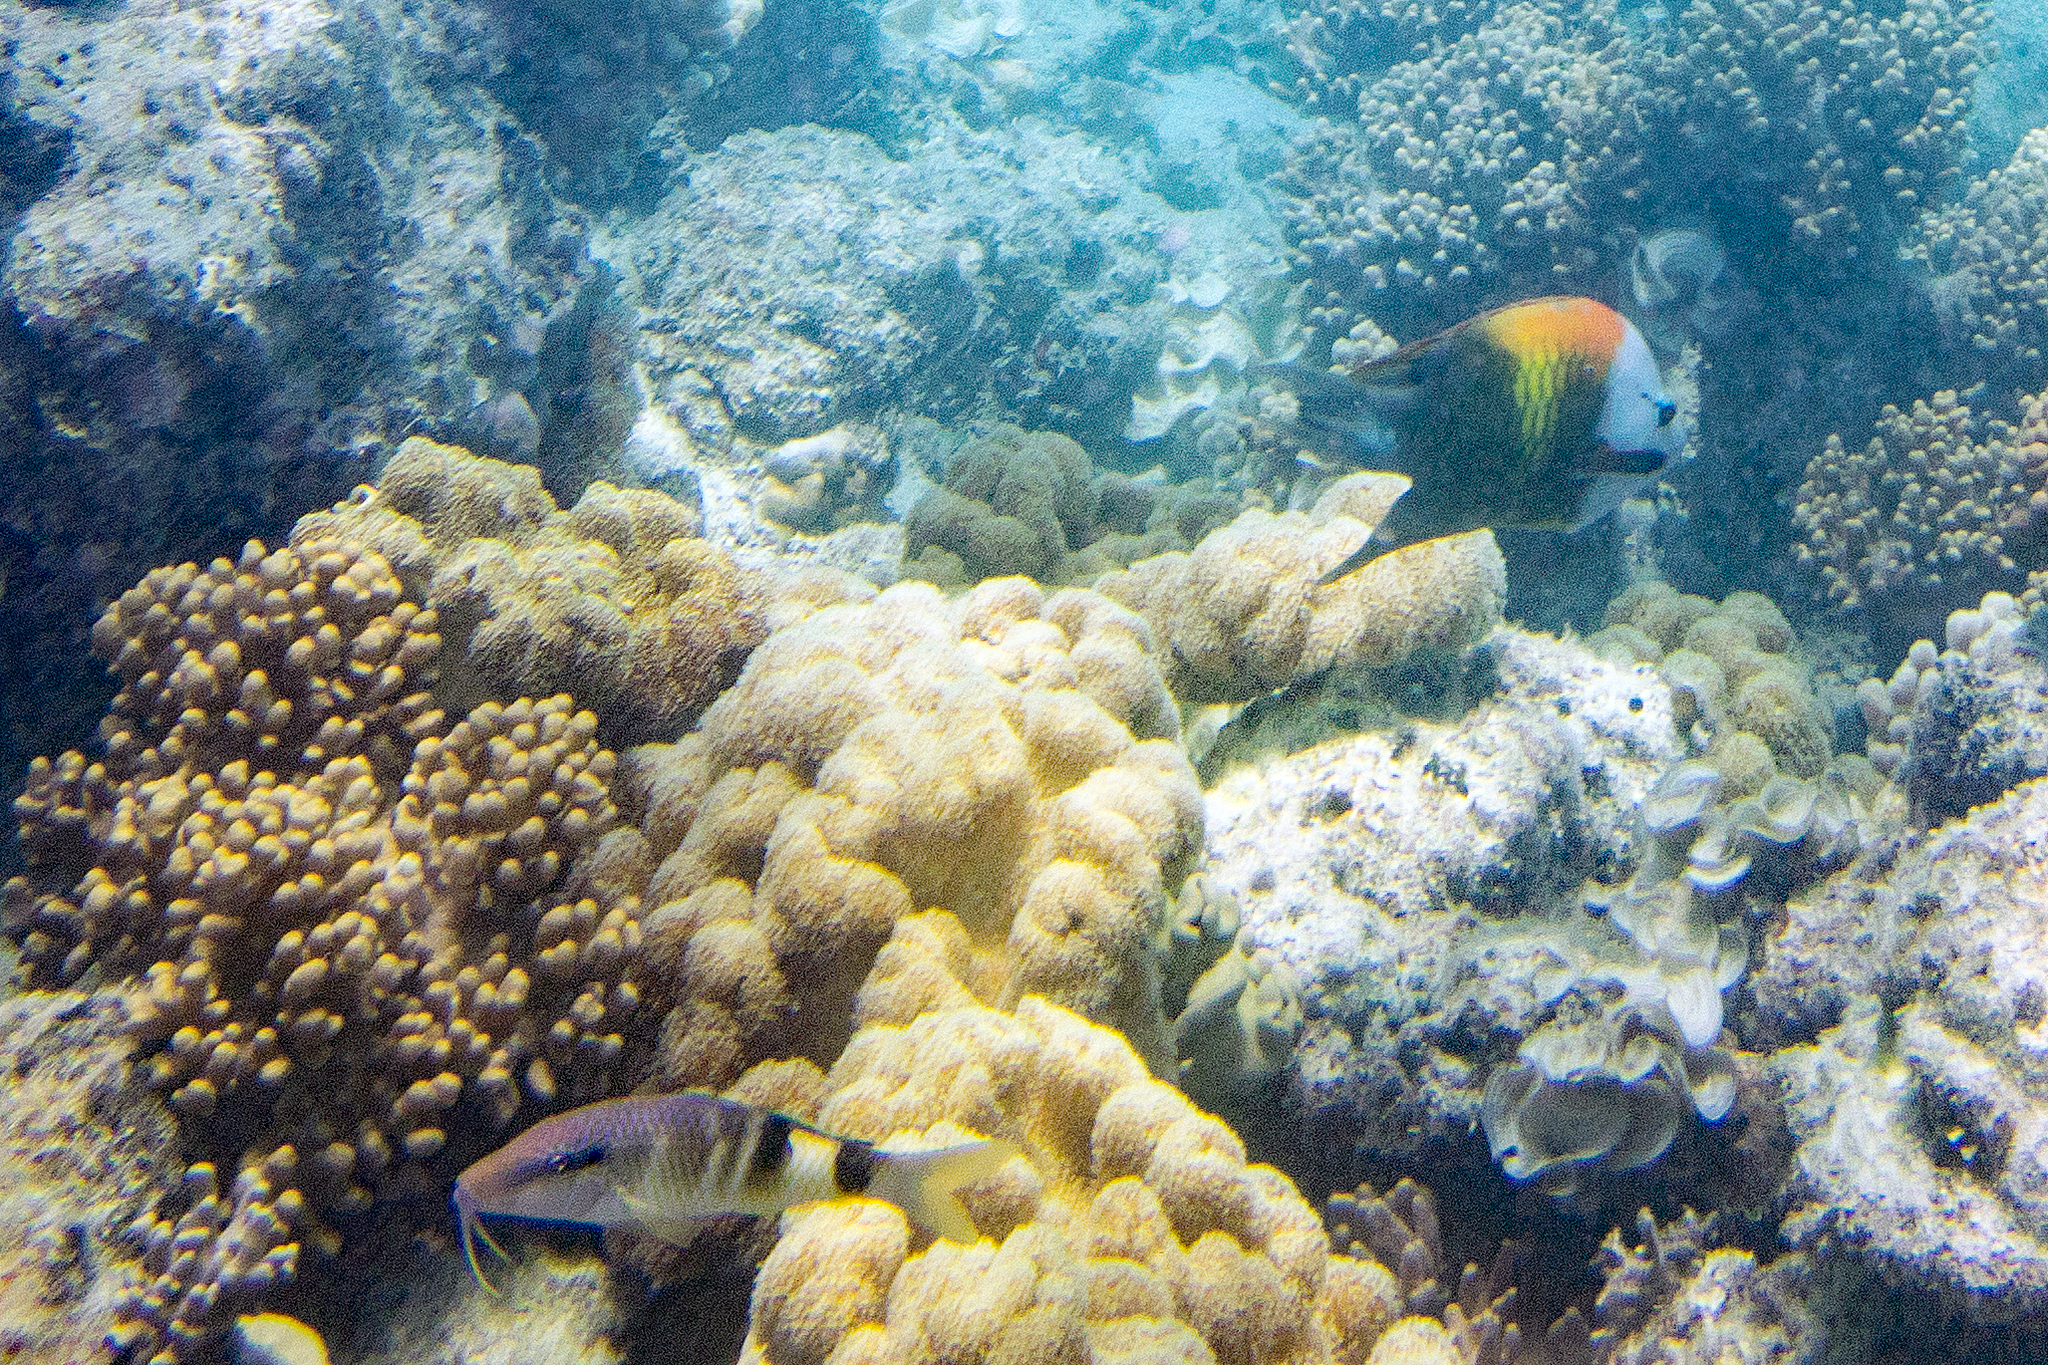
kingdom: Animalia
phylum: Chordata
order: Perciformes
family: Labridae
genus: Epibulus
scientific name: Epibulus insidiator
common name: Slingjaw wrasse
